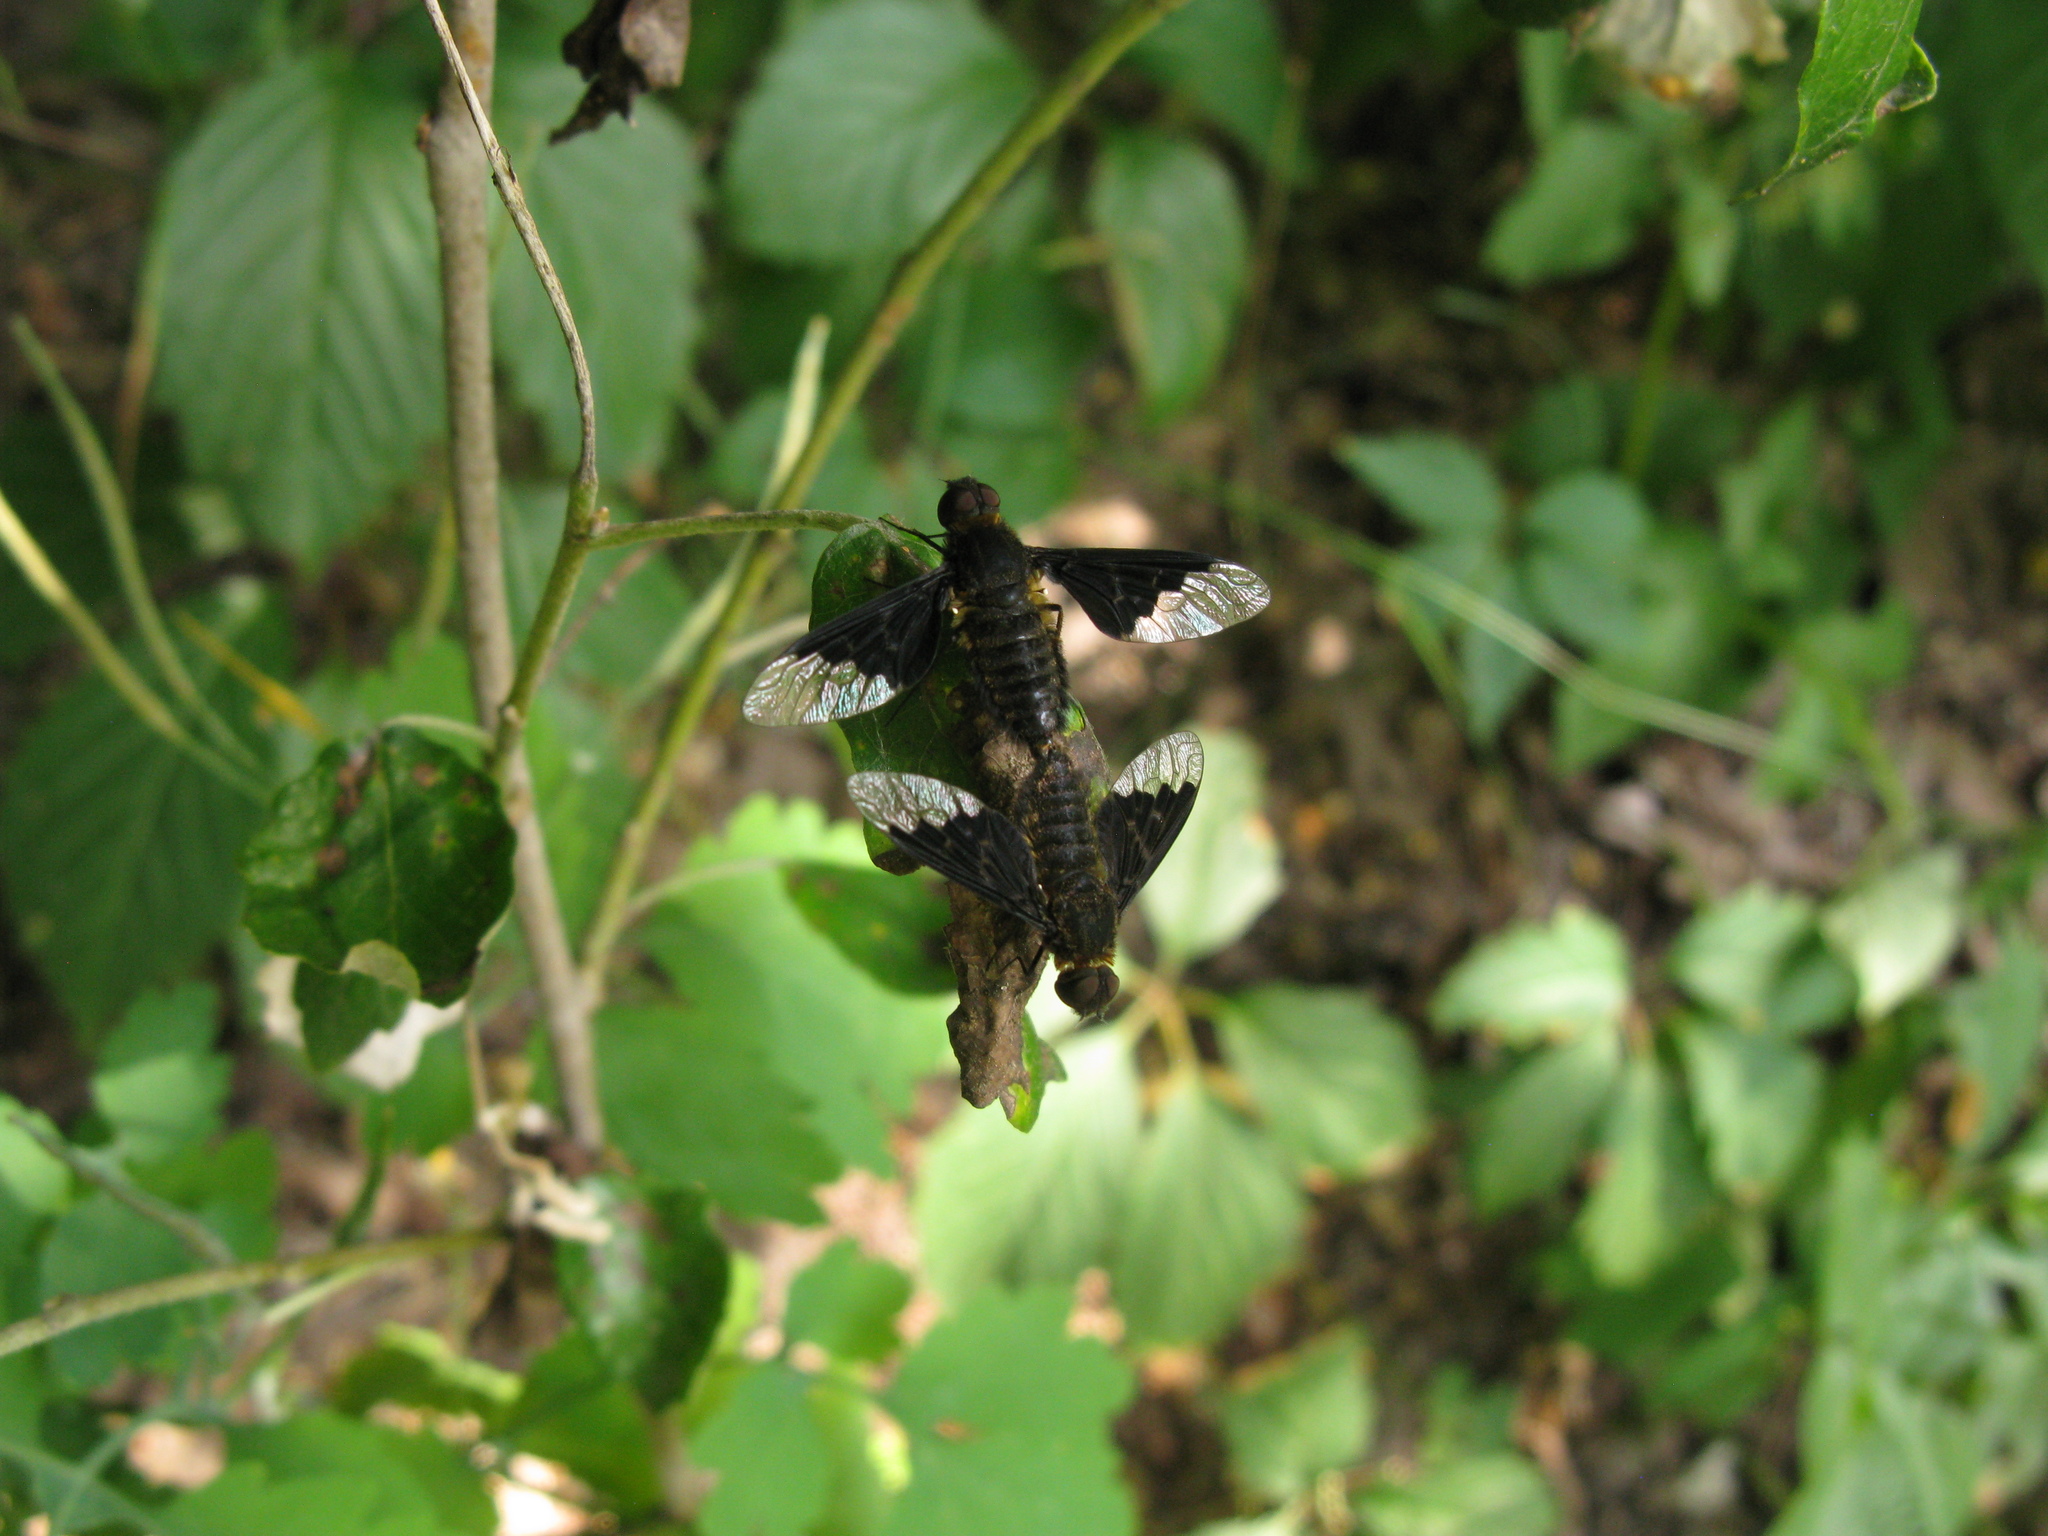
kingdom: Animalia
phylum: Arthropoda
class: Insecta
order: Diptera
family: Bombyliidae
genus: Hemipenthes
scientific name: Hemipenthes morio
